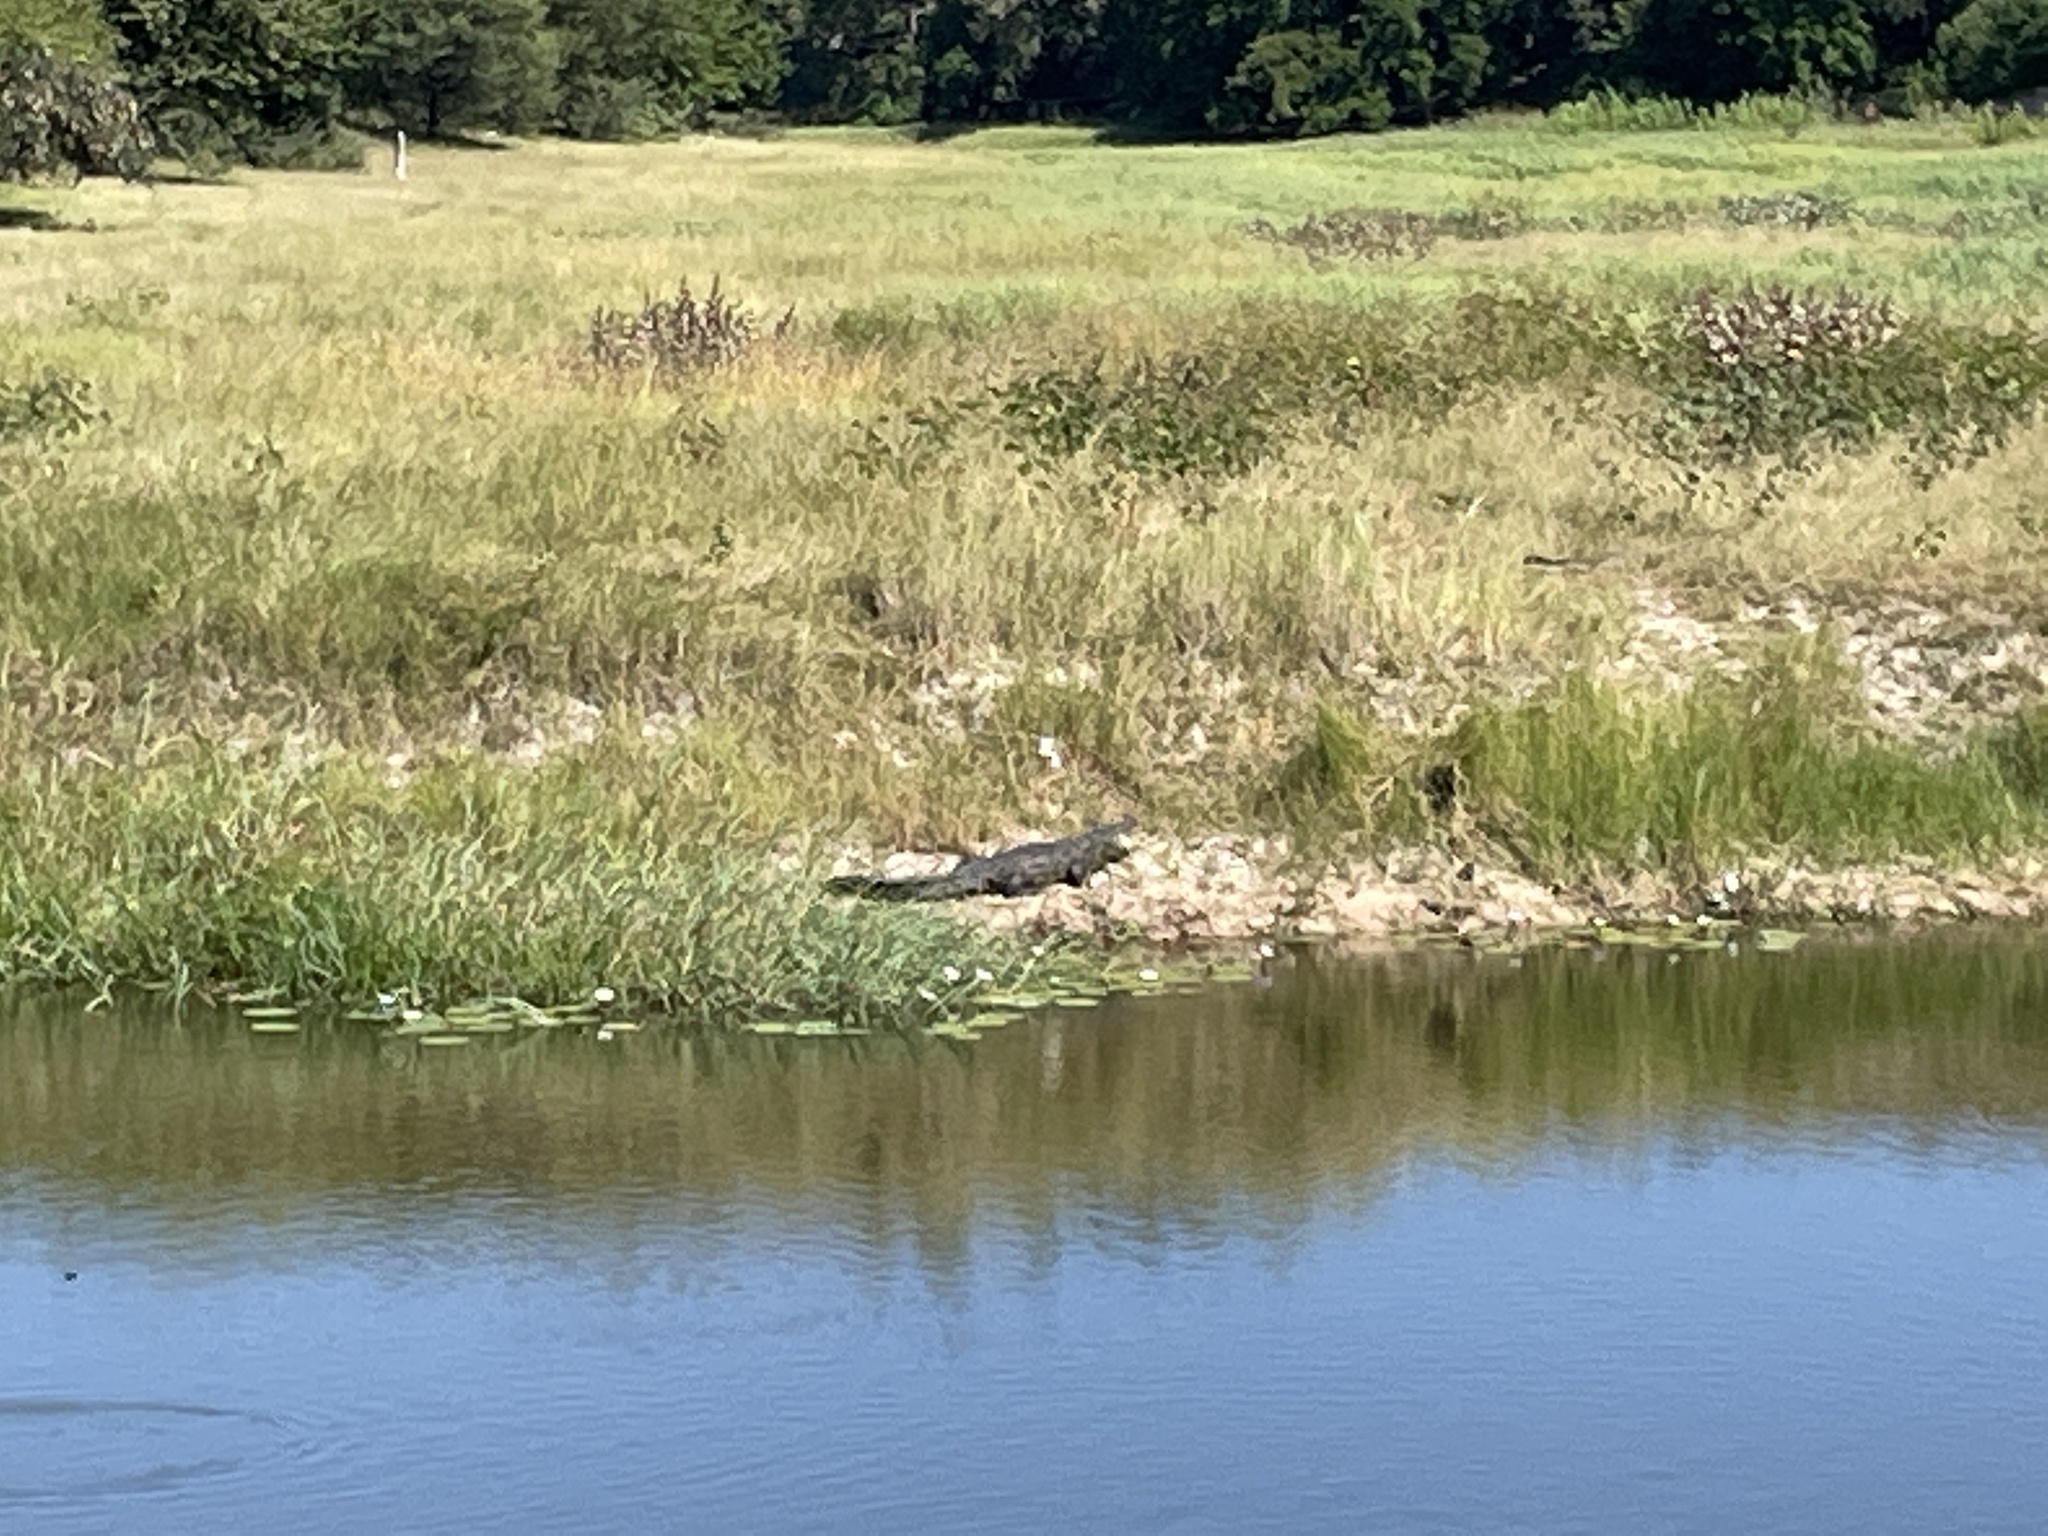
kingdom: Animalia
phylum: Chordata
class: Crocodylia
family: Crocodylidae
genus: Crocodylus
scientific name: Crocodylus niloticus
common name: Nile crocodile
